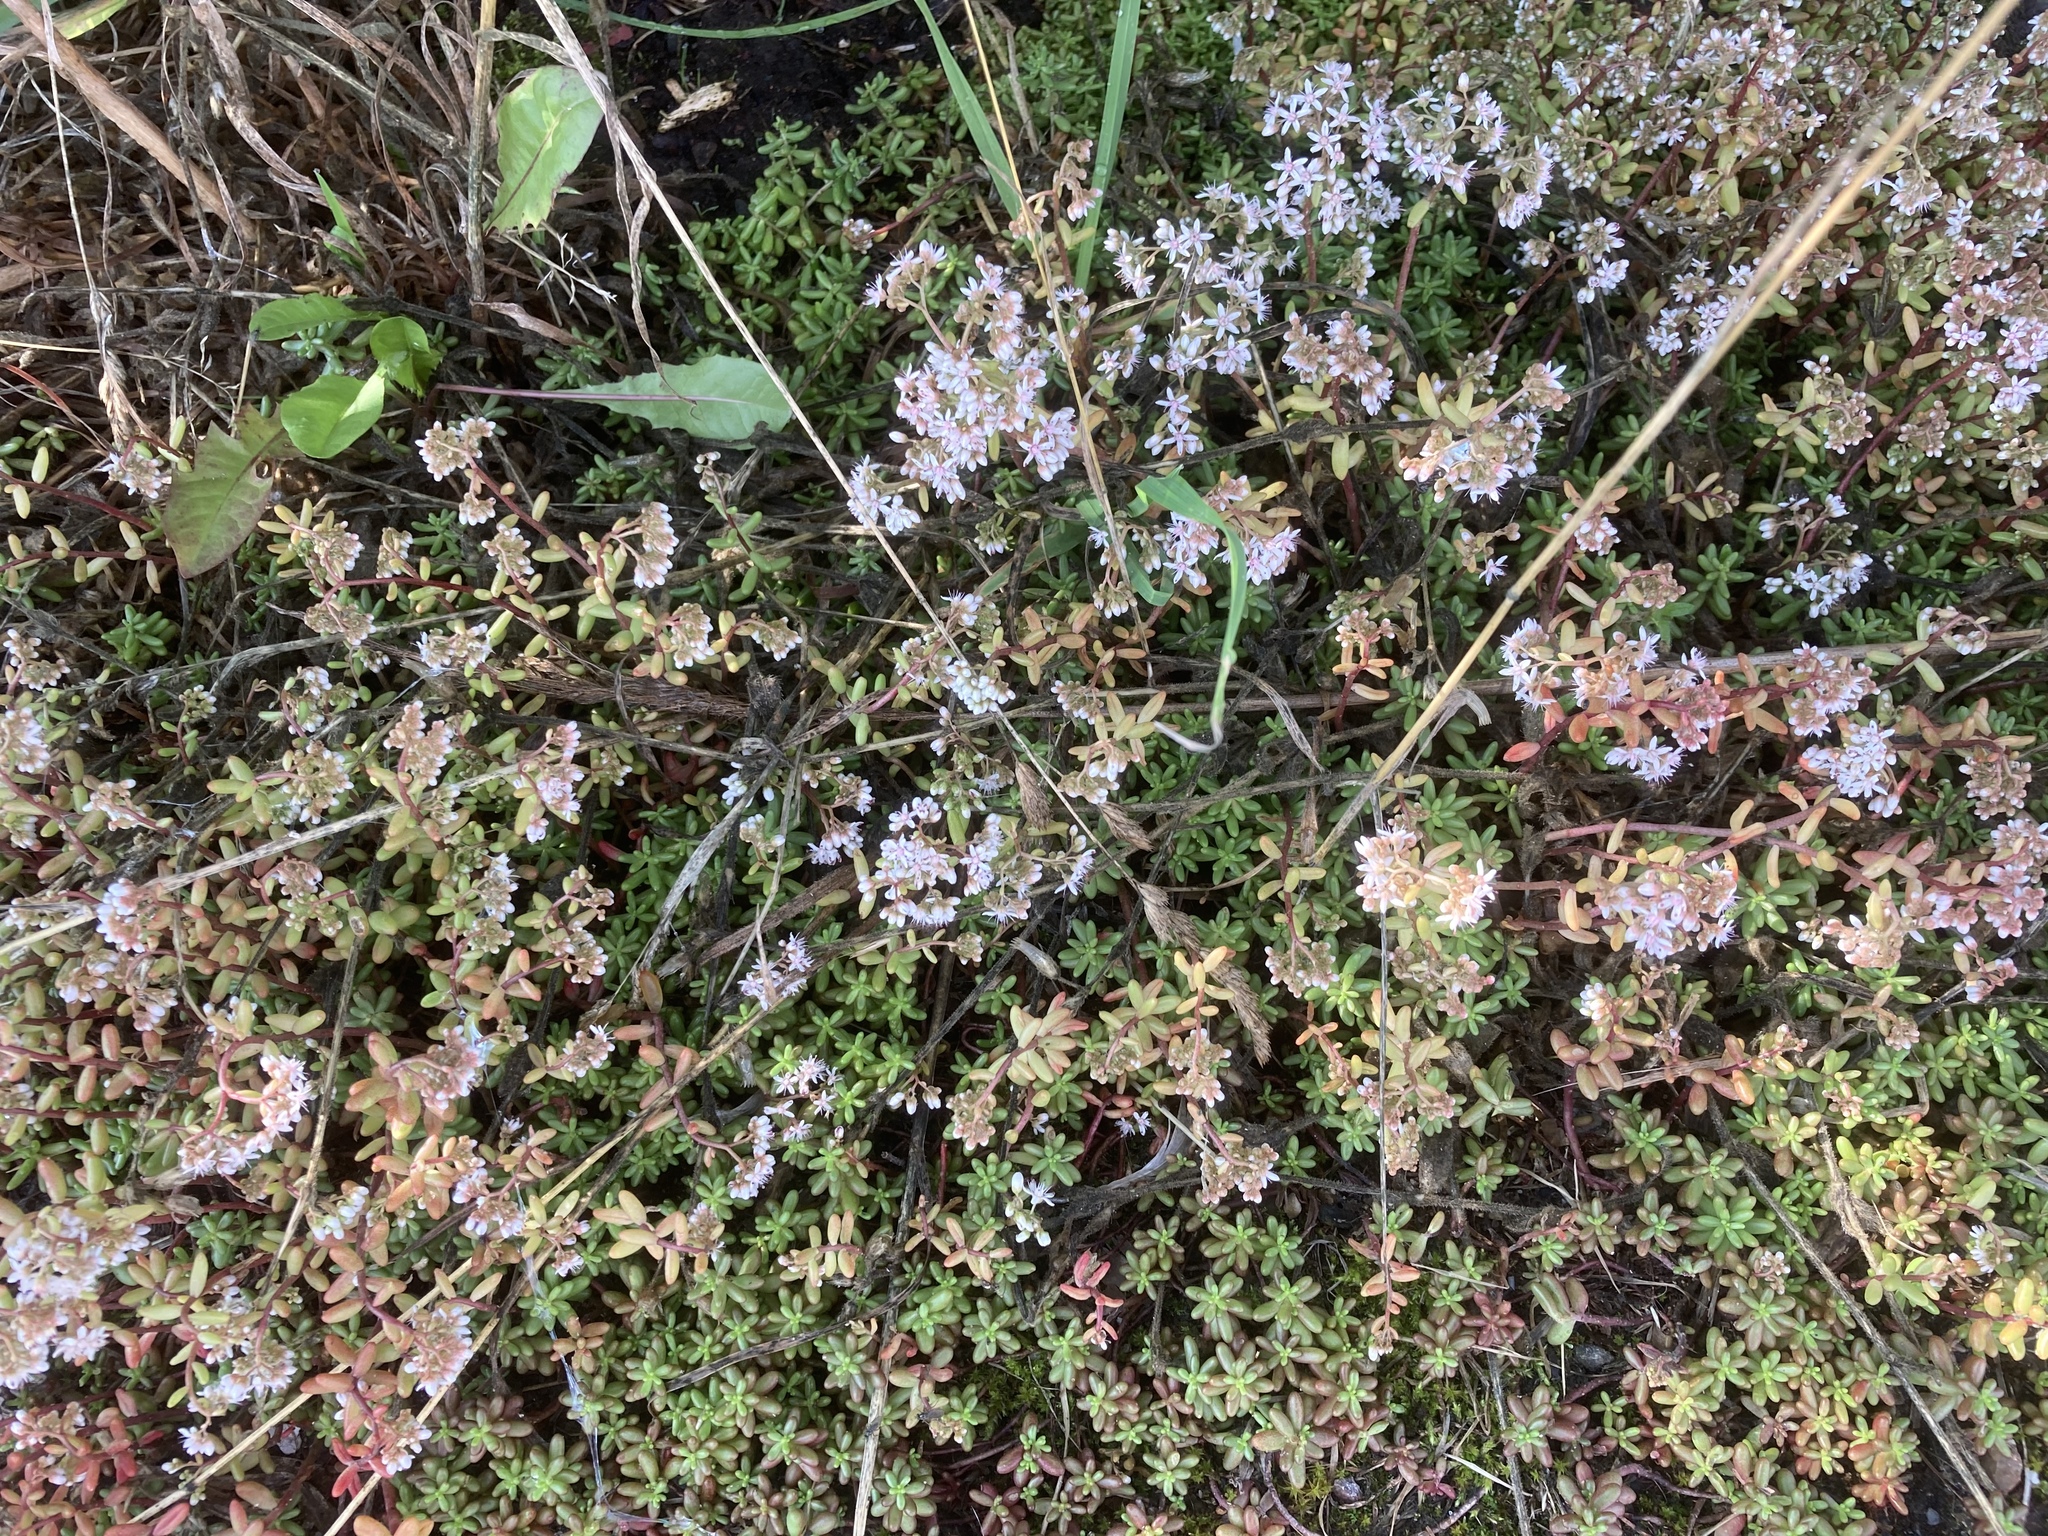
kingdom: Plantae
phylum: Tracheophyta
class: Magnoliopsida
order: Saxifragales
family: Crassulaceae
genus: Sedum
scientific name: Sedum album
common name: White stonecrop
